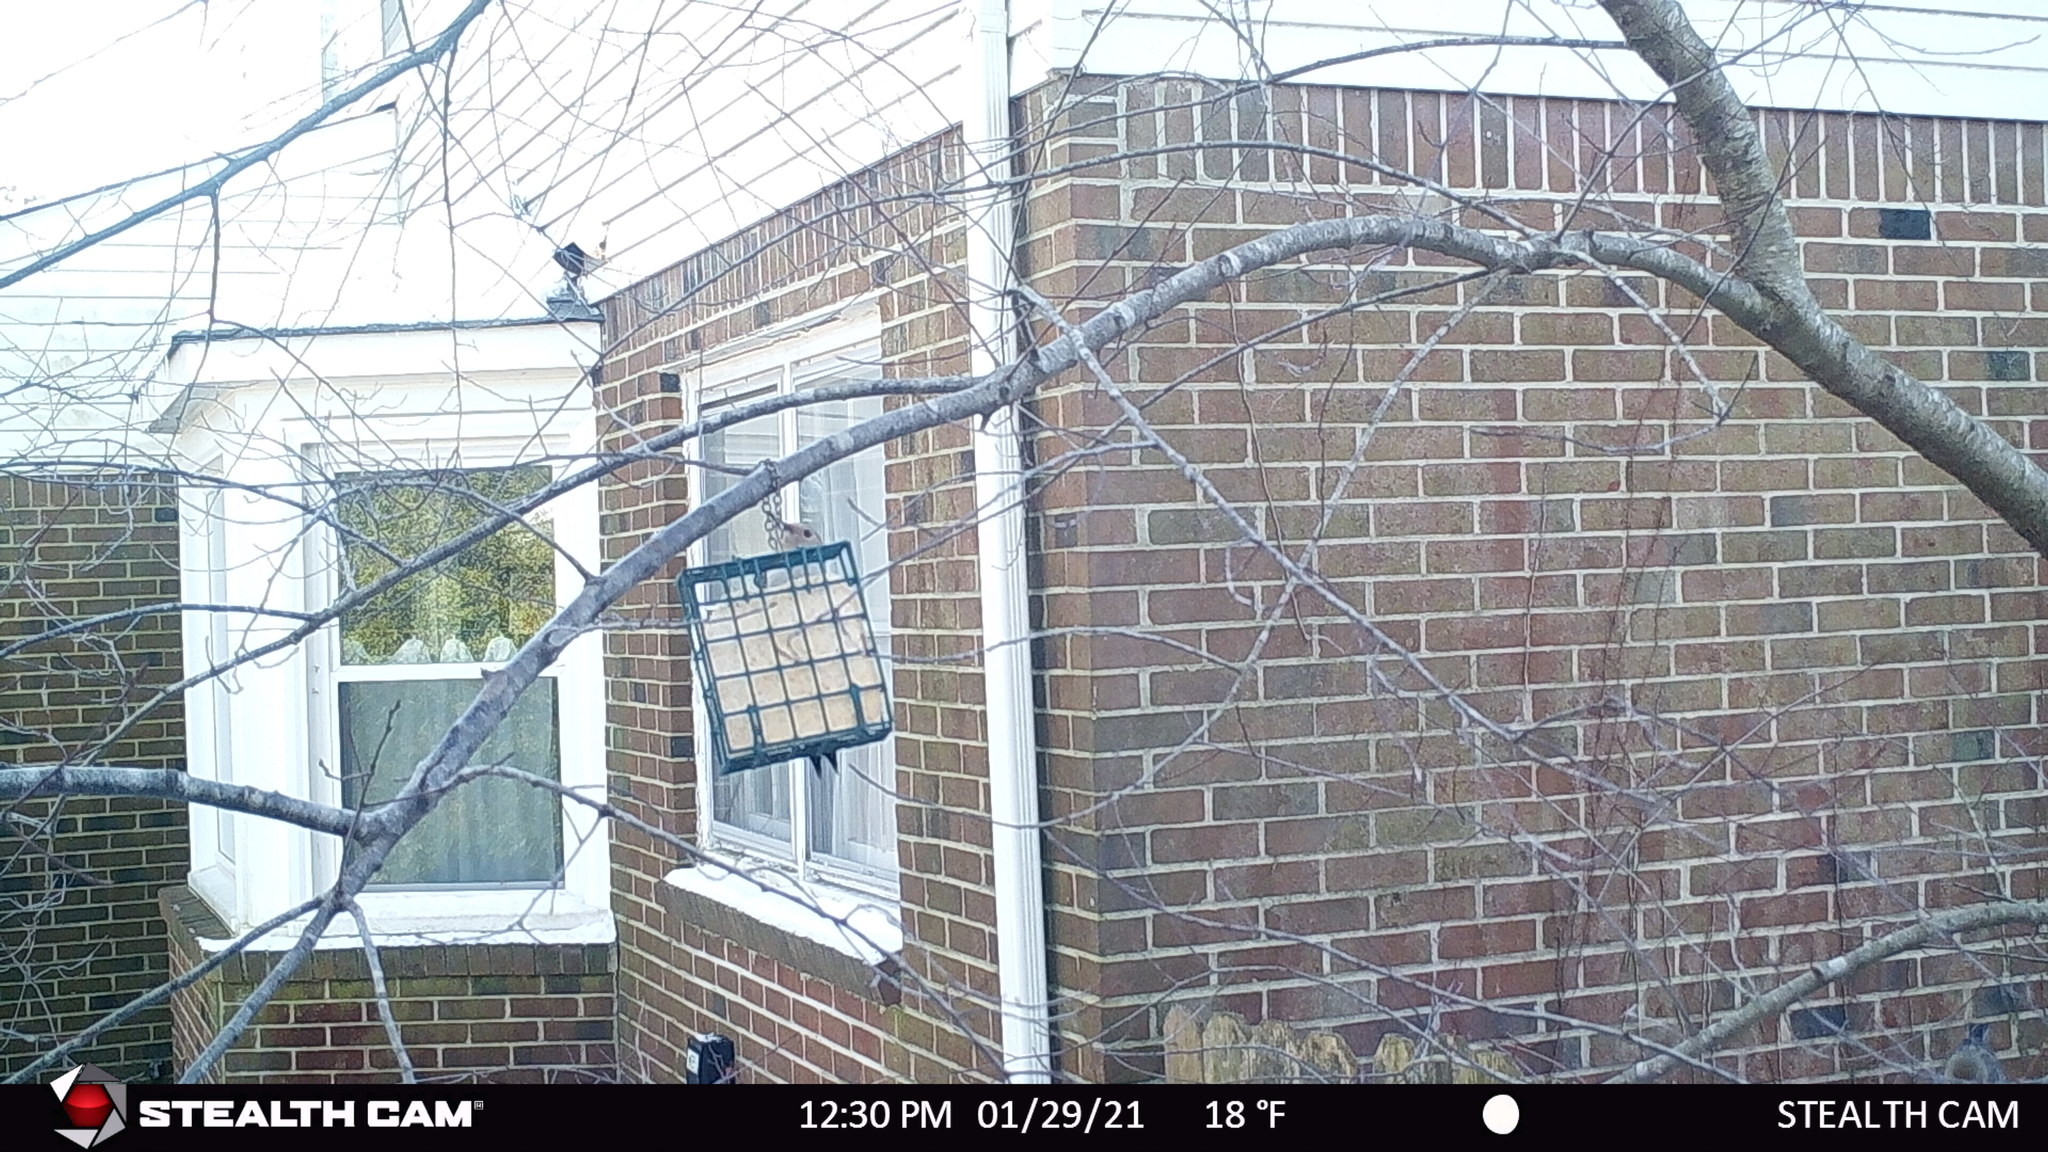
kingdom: Animalia
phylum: Chordata
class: Aves
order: Piciformes
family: Picidae
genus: Melanerpes
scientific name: Melanerpes carolinus
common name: Red-bellied woodpecker
